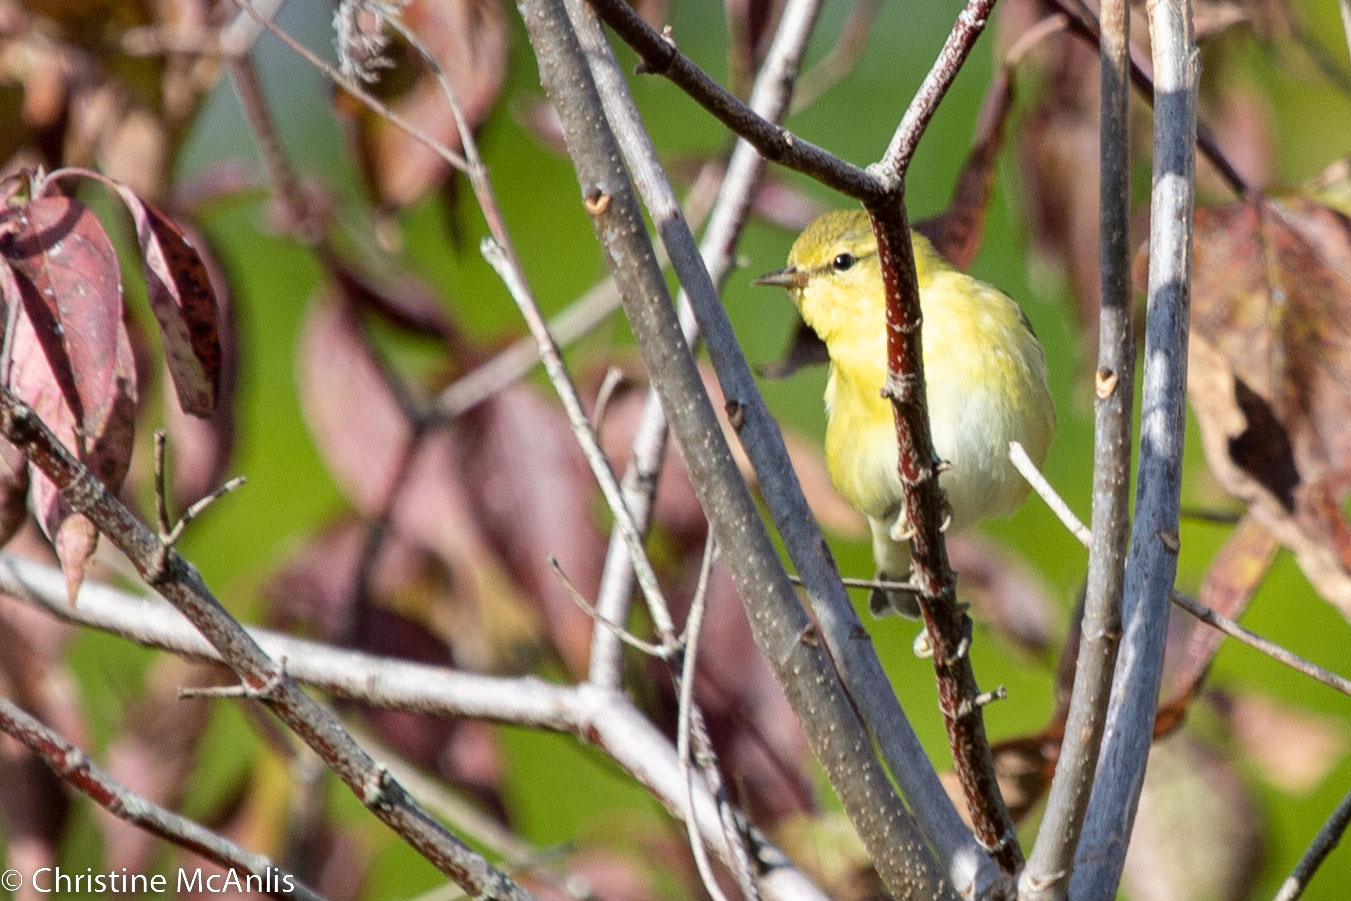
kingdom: Animalia
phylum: Chordata
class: Aves
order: Passeriformes
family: Parulidae
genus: Leiothlypis
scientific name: Leiothlypis peregrina
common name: Tennessee warbler
